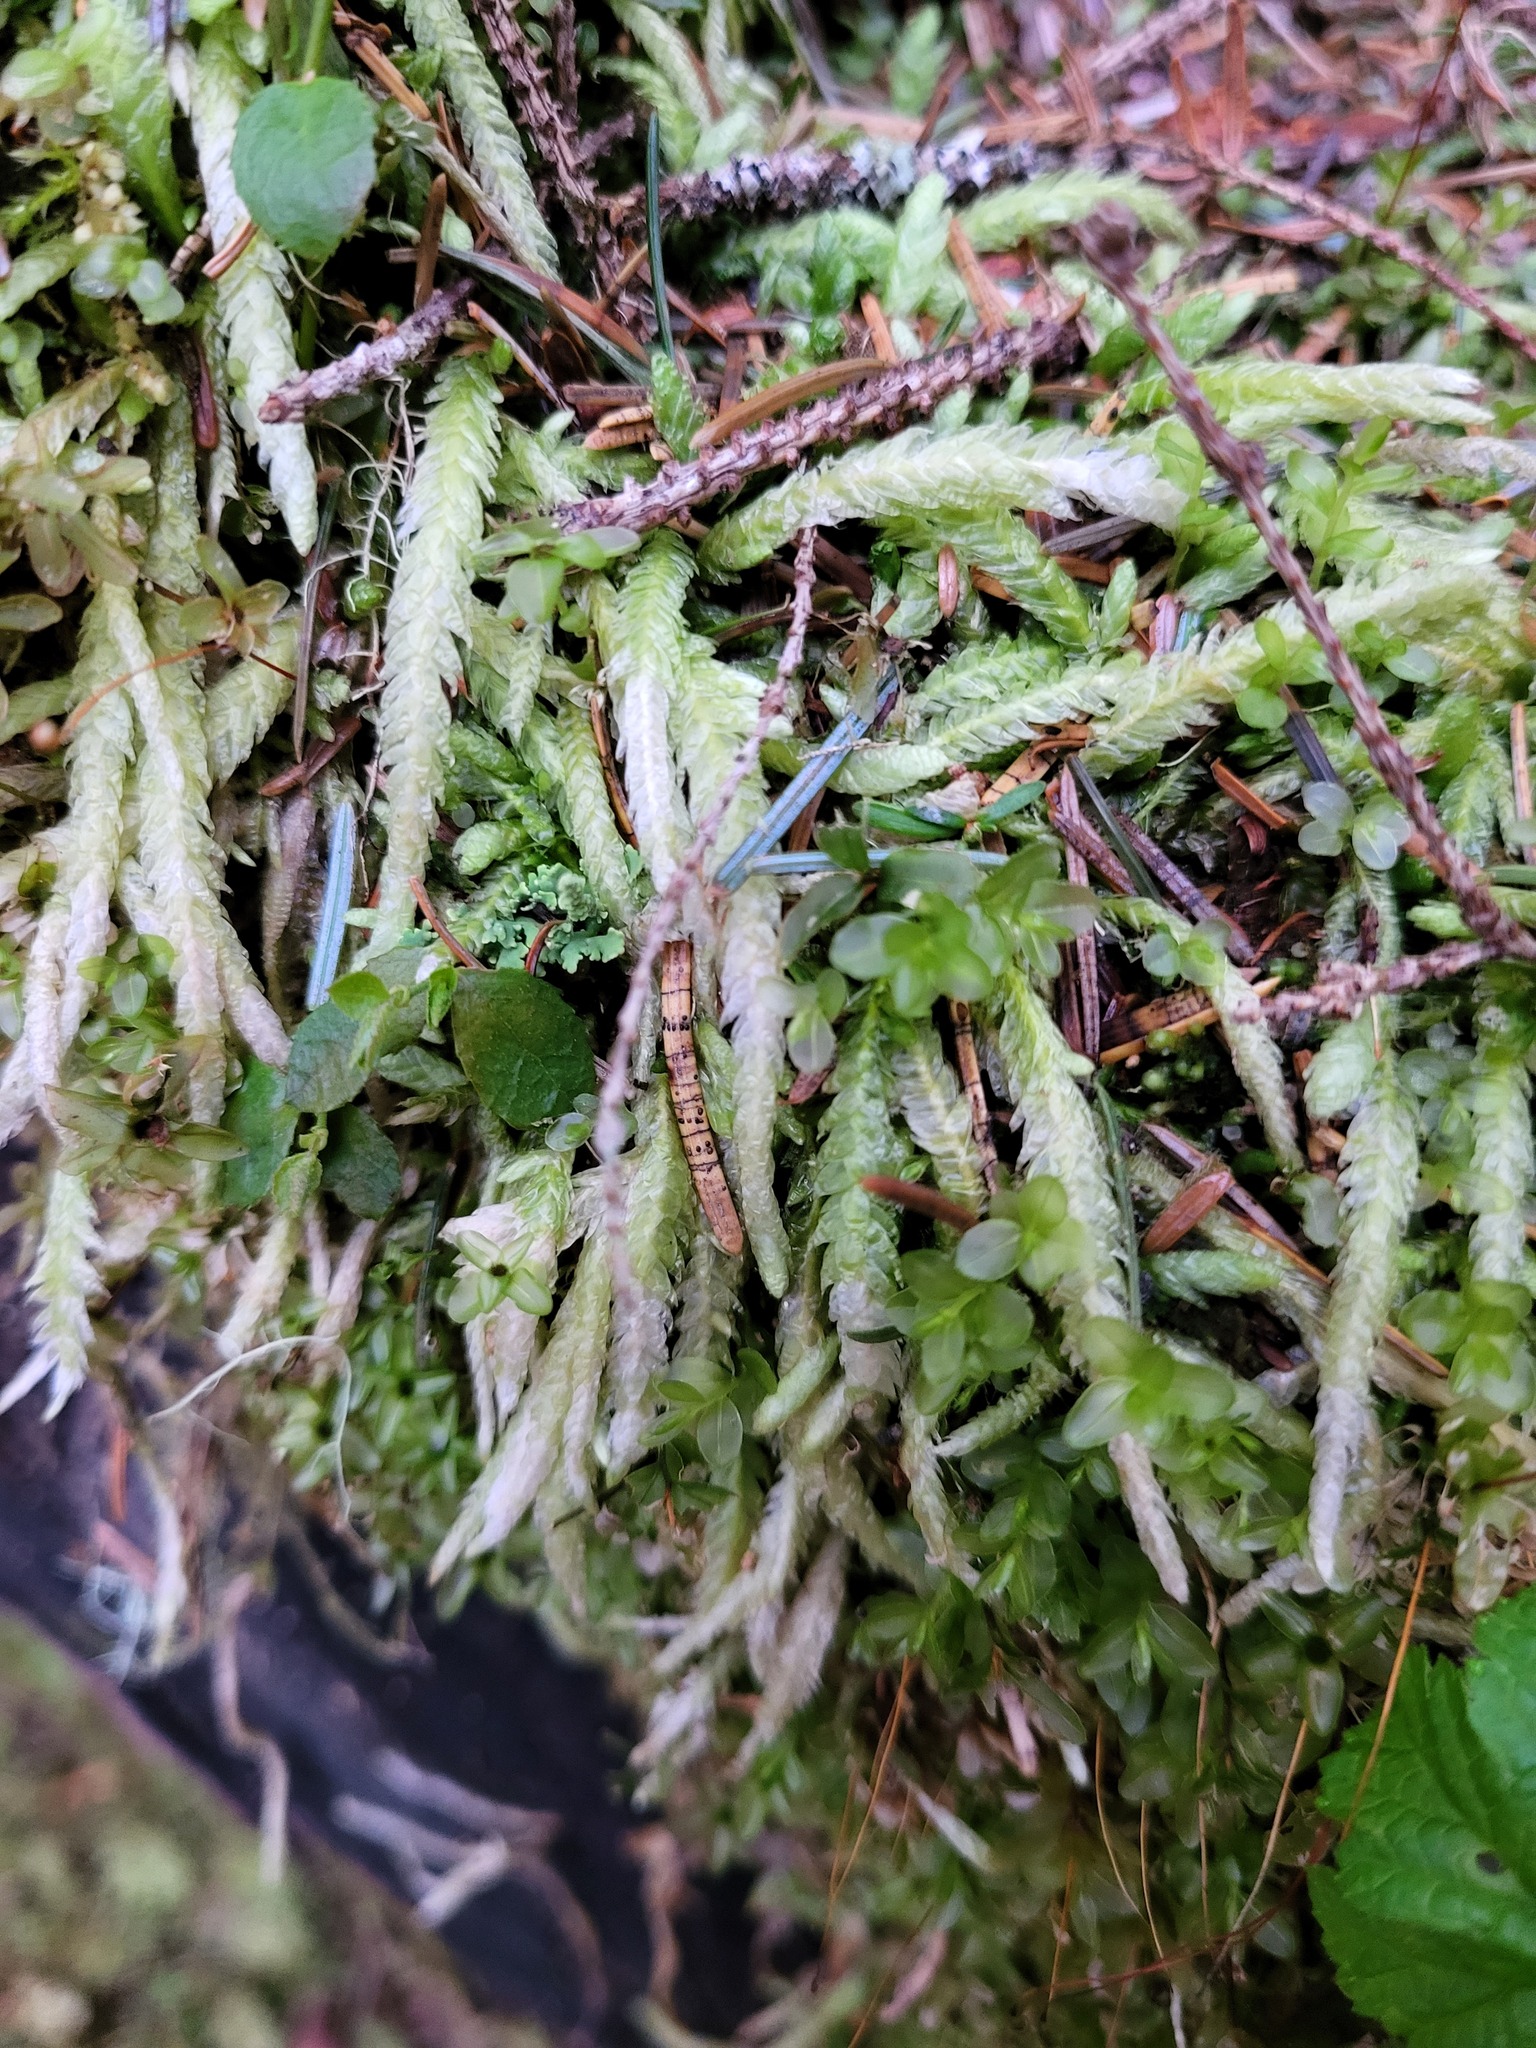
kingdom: Plantae
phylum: Bryophyta
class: Bryopsida
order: Hypnales
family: Plagiotheciaceae
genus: Plagiothecium
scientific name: Plagiothecium undulatum
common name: Waved silk-moss
